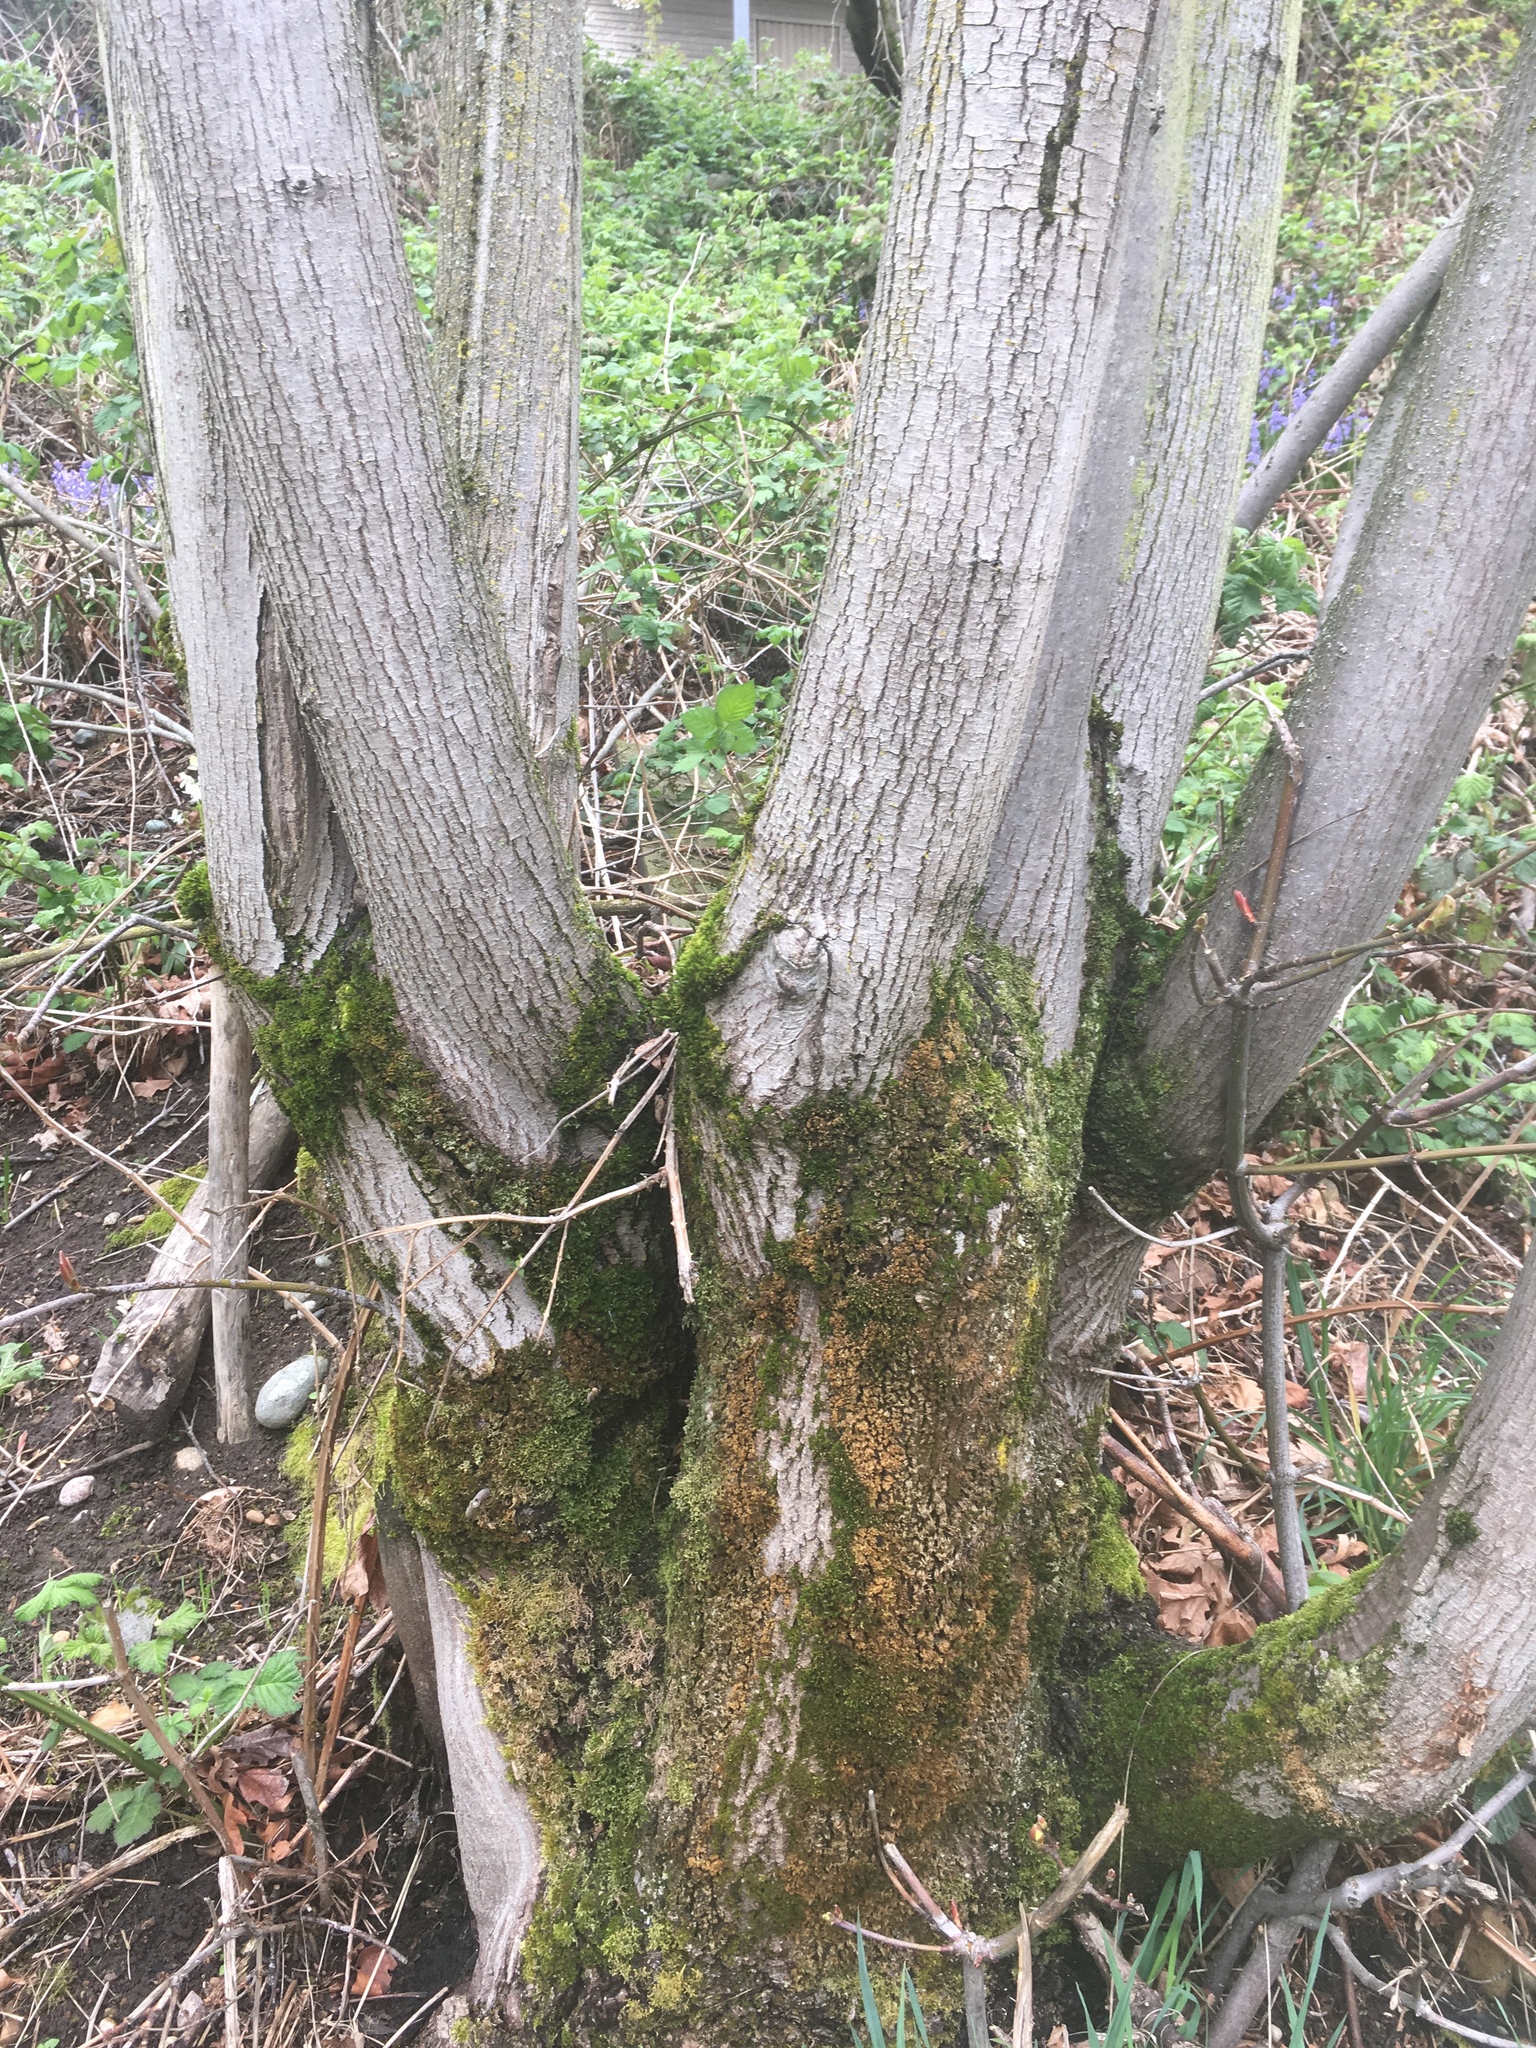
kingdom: Plantae
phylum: Tracheophyta
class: Magnoliopsida
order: Sapindales
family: Sapindaceae
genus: Acer
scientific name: Acer macrophyllum
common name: Oregon maple
